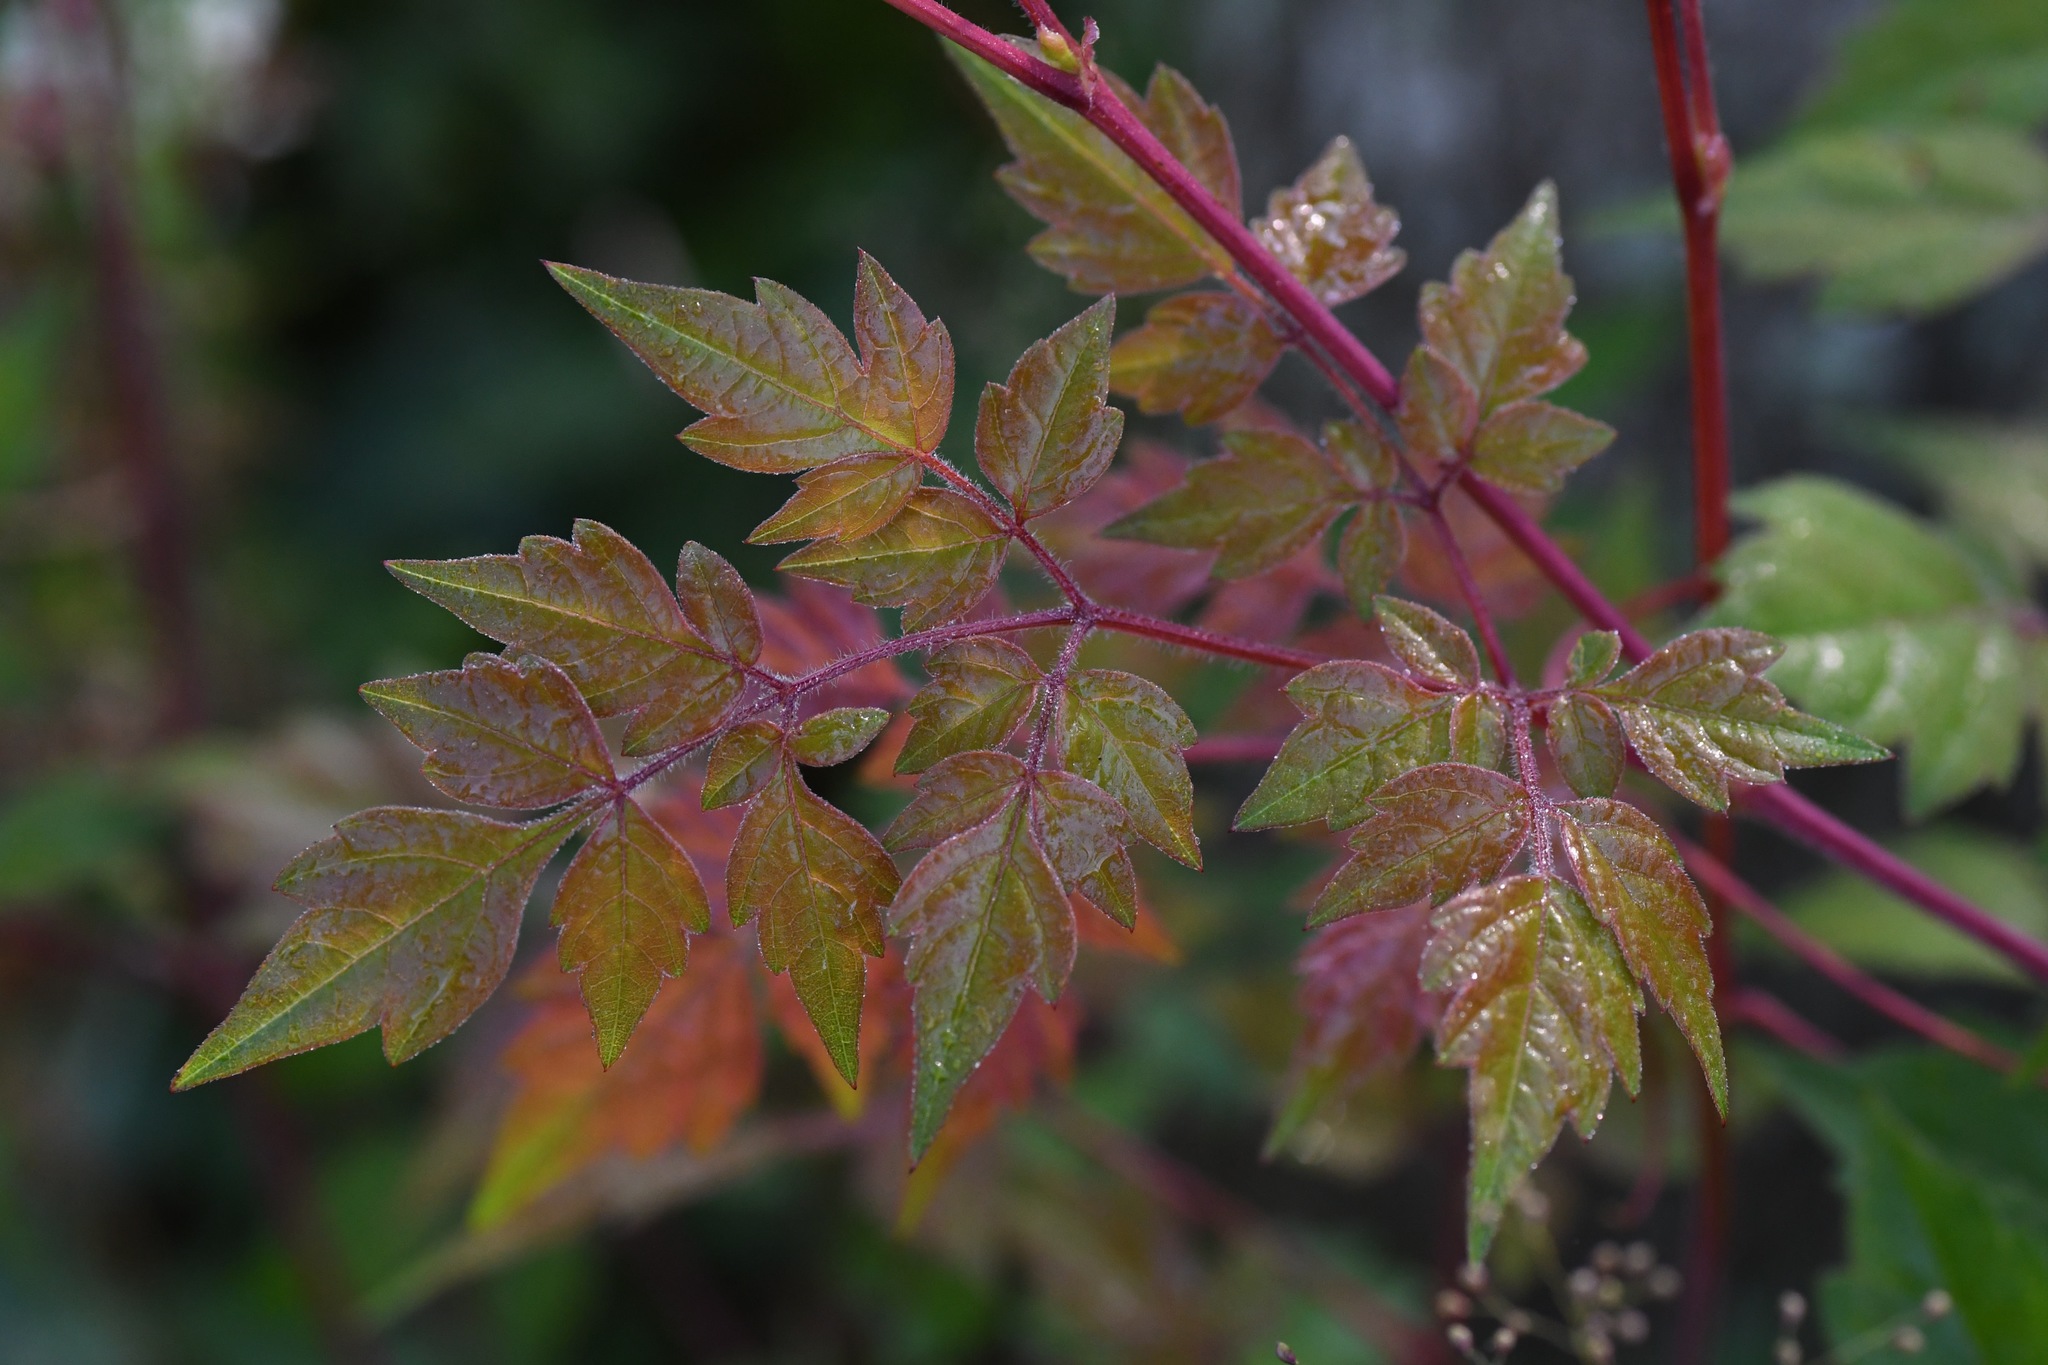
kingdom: Plantae
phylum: Tracheophyta
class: Magnoliopsida
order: Vitales
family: Vitaceae
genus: Nekemias
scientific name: Nekemias arborea
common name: Peppervine
